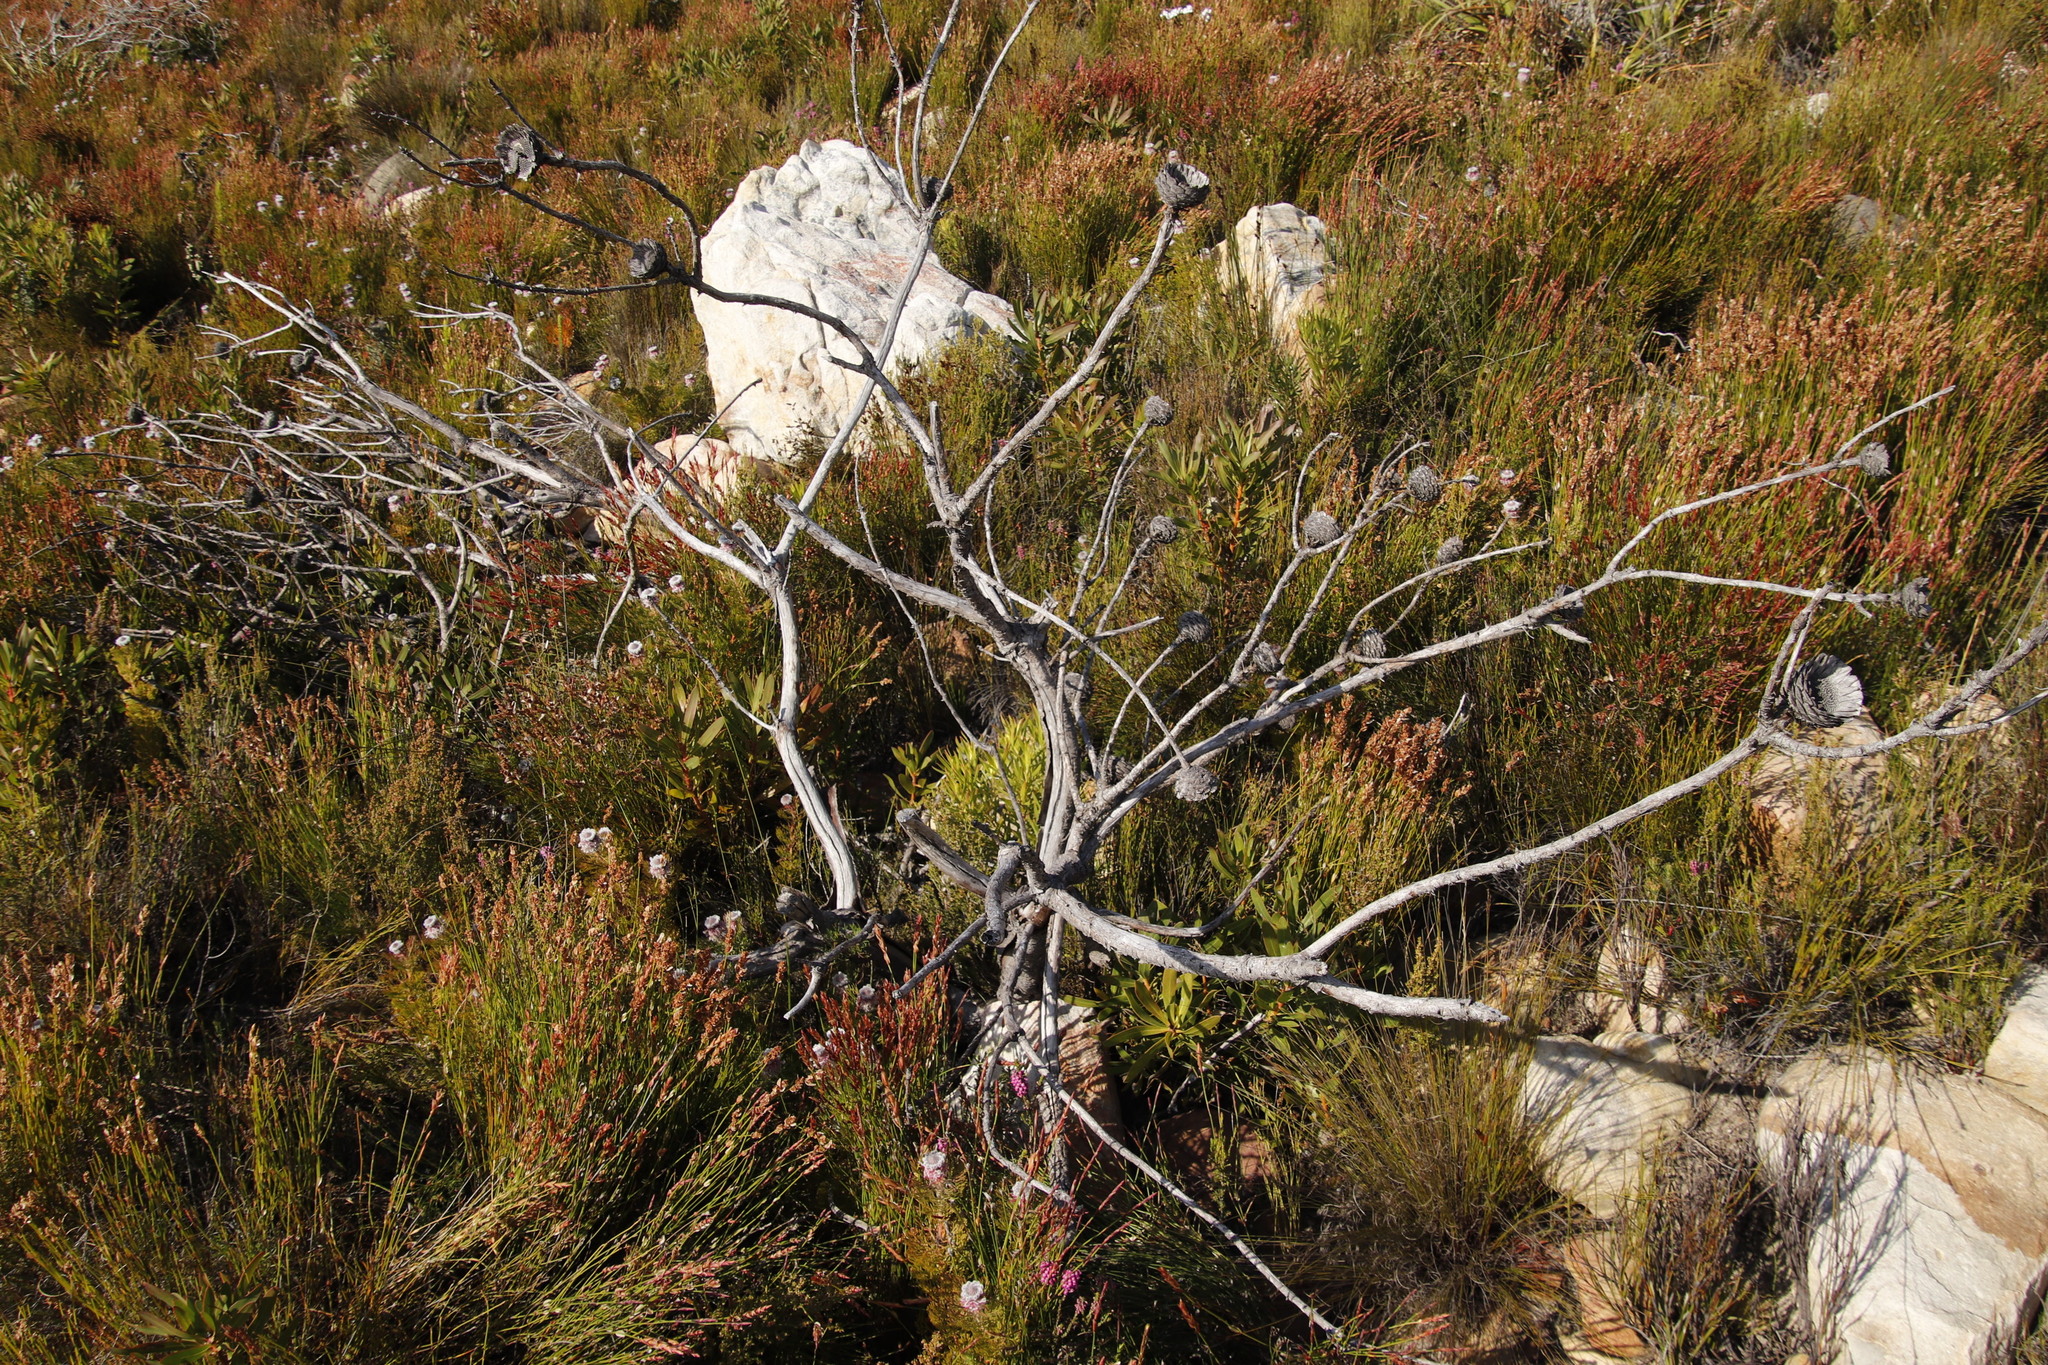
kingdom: Plantae
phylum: Tracheophyta
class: Magnoliopsida
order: Proteales
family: Proteaceae
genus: Protea
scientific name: Protea lepidocarpodendron
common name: Black-bearded protea
